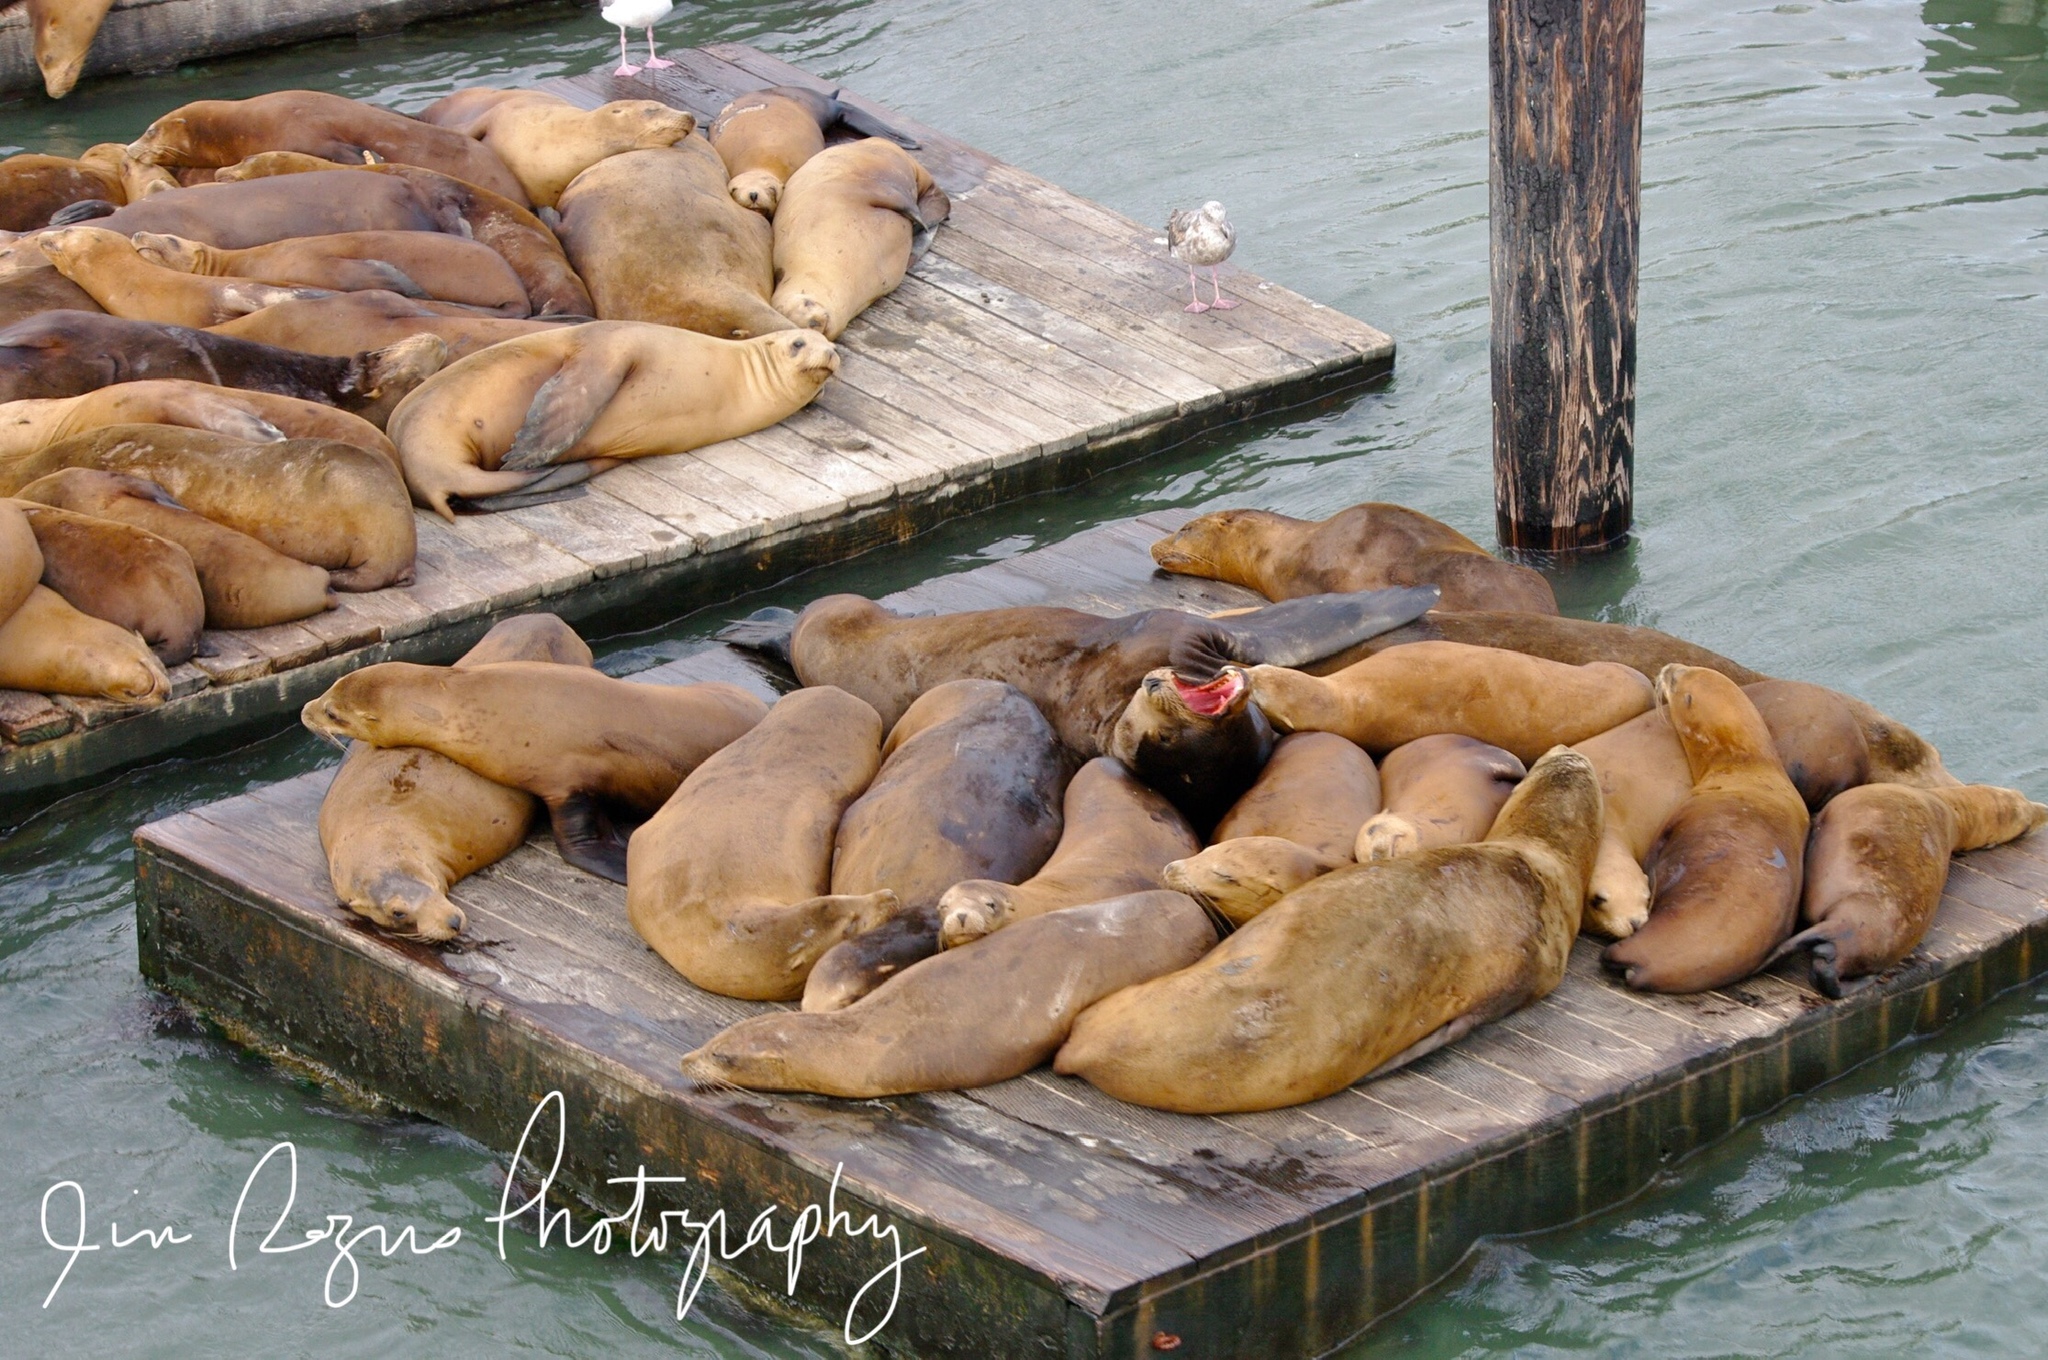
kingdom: Animalia
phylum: Chordata
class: Mammalia
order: Carnivora
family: Otariidae
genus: Zalophus
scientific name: Zalophus californianus
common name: California sea lion
